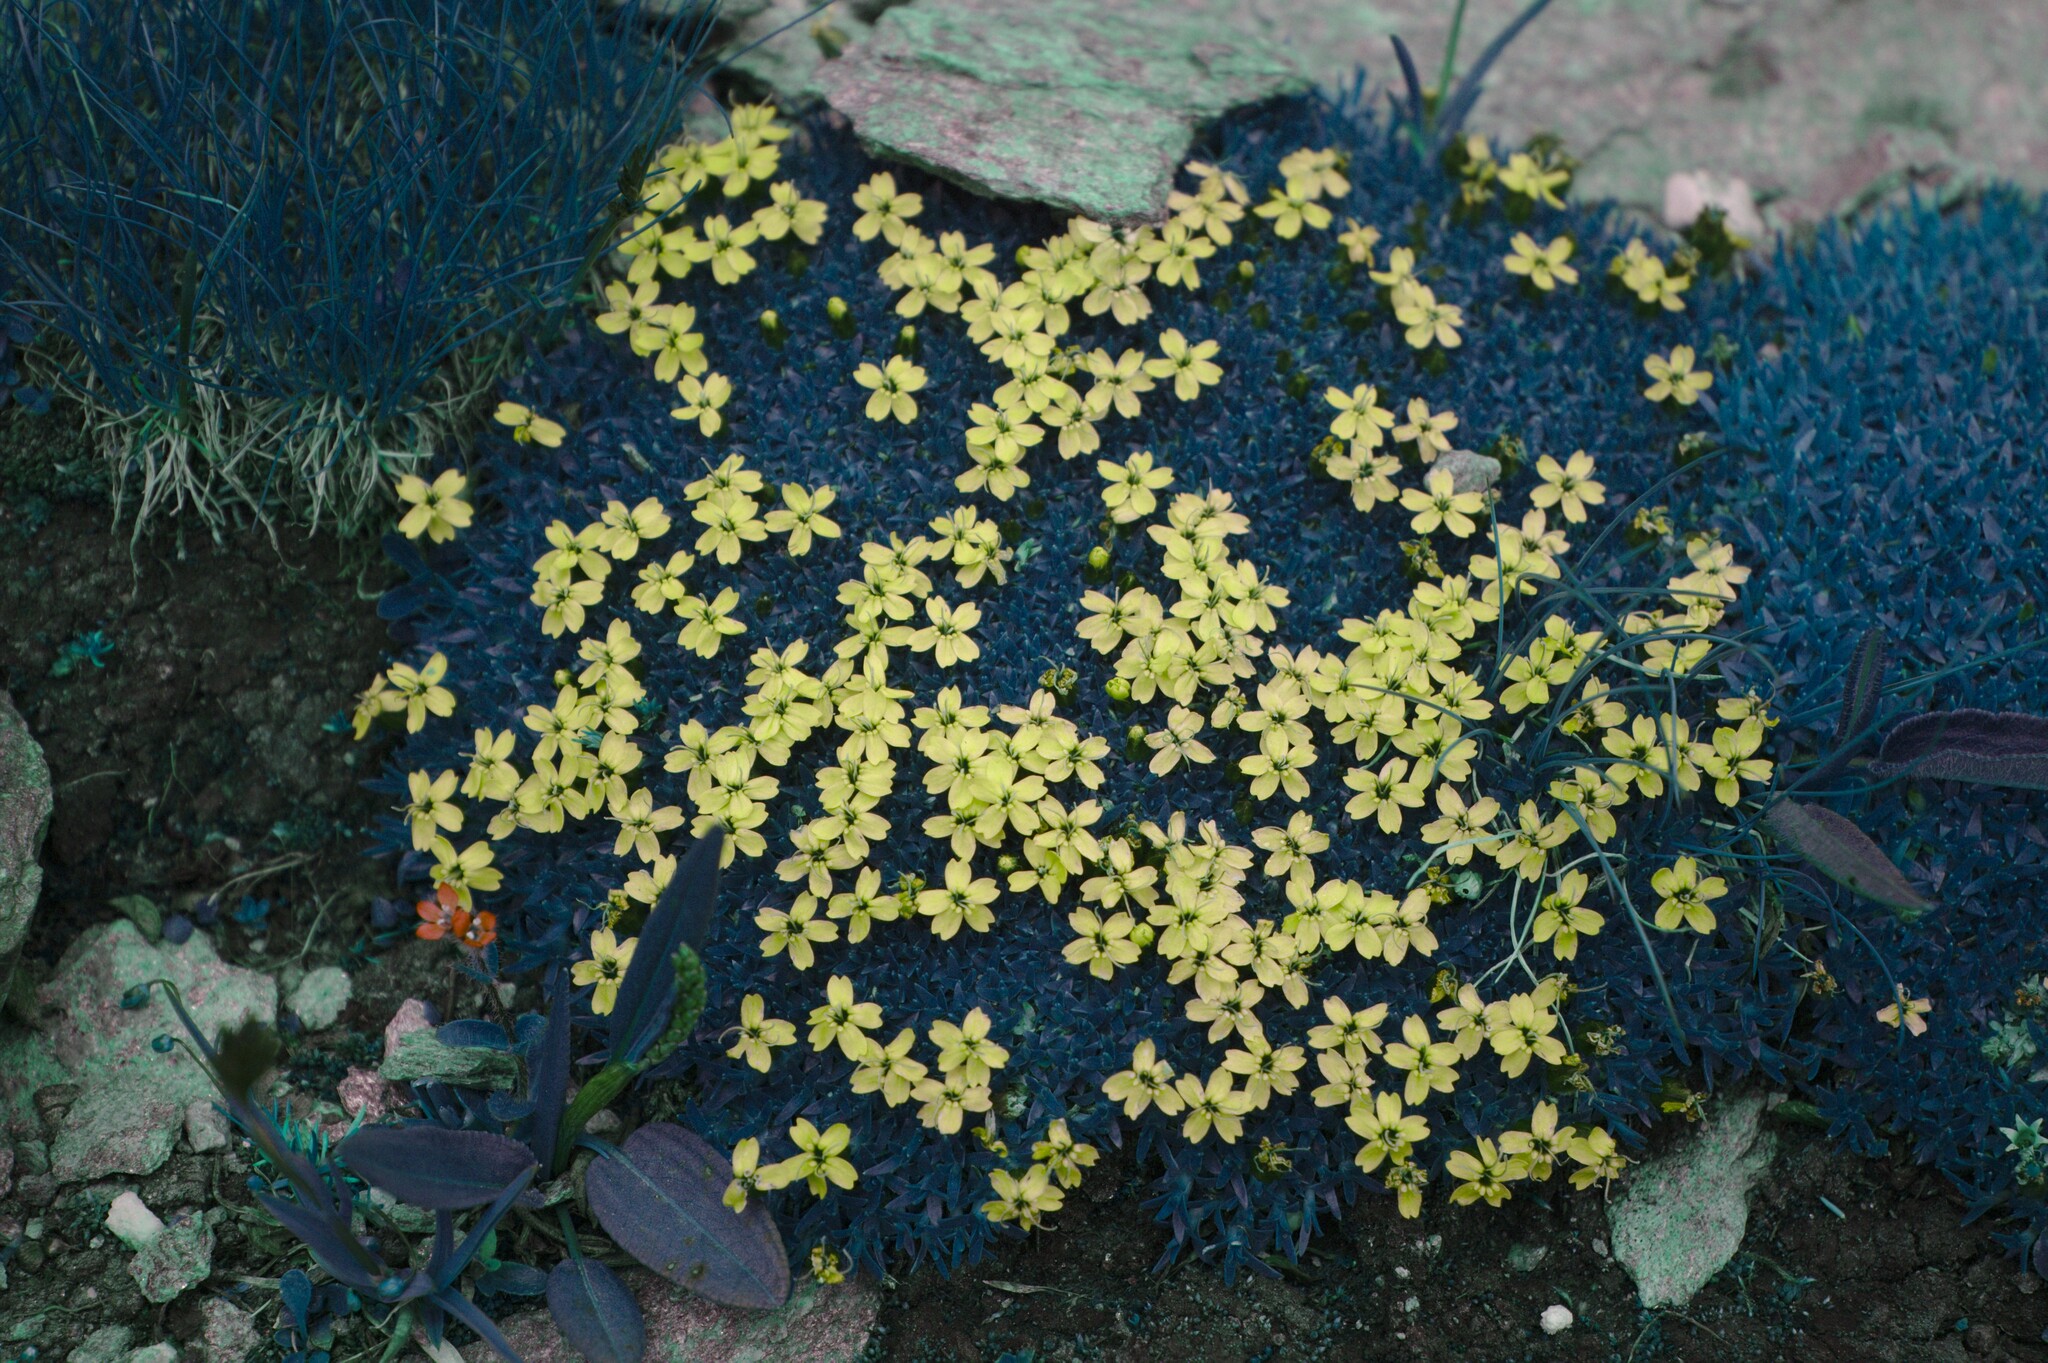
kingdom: Plantae
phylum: Tracheophyta
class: Magnoliopsida
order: Caryophyllales
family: Caryophyllaceae
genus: Silene
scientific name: Silene acaulis
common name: Moss campion
